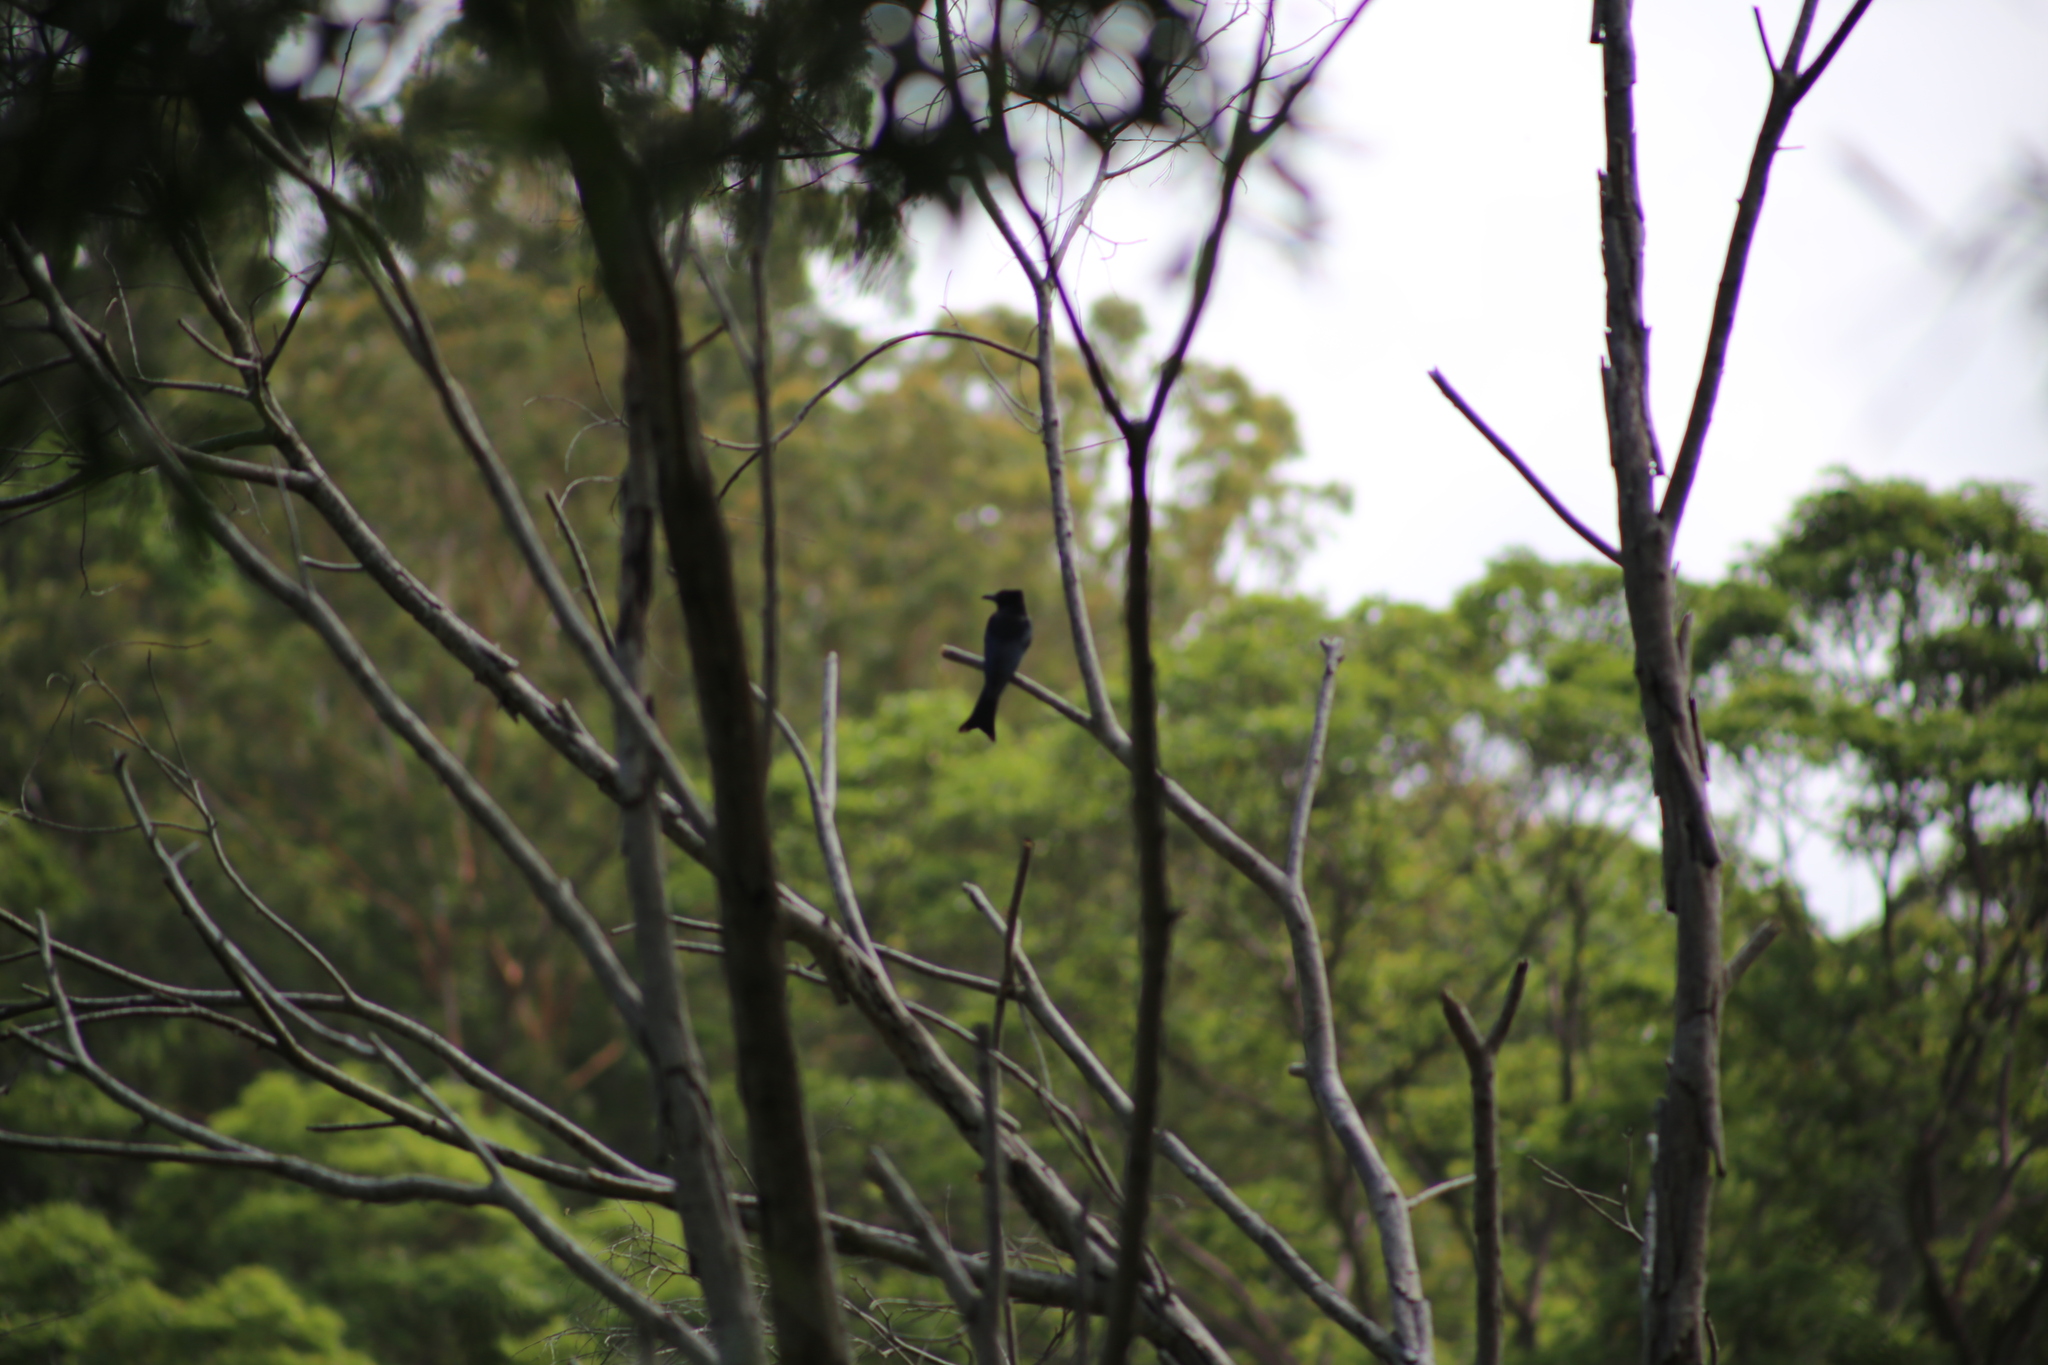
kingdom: Animalia
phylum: Chordata
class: Aves
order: Passeriformes
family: Dicruridae
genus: Dicrurus
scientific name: Dicrurus bracteatus
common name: Spangled drongo
